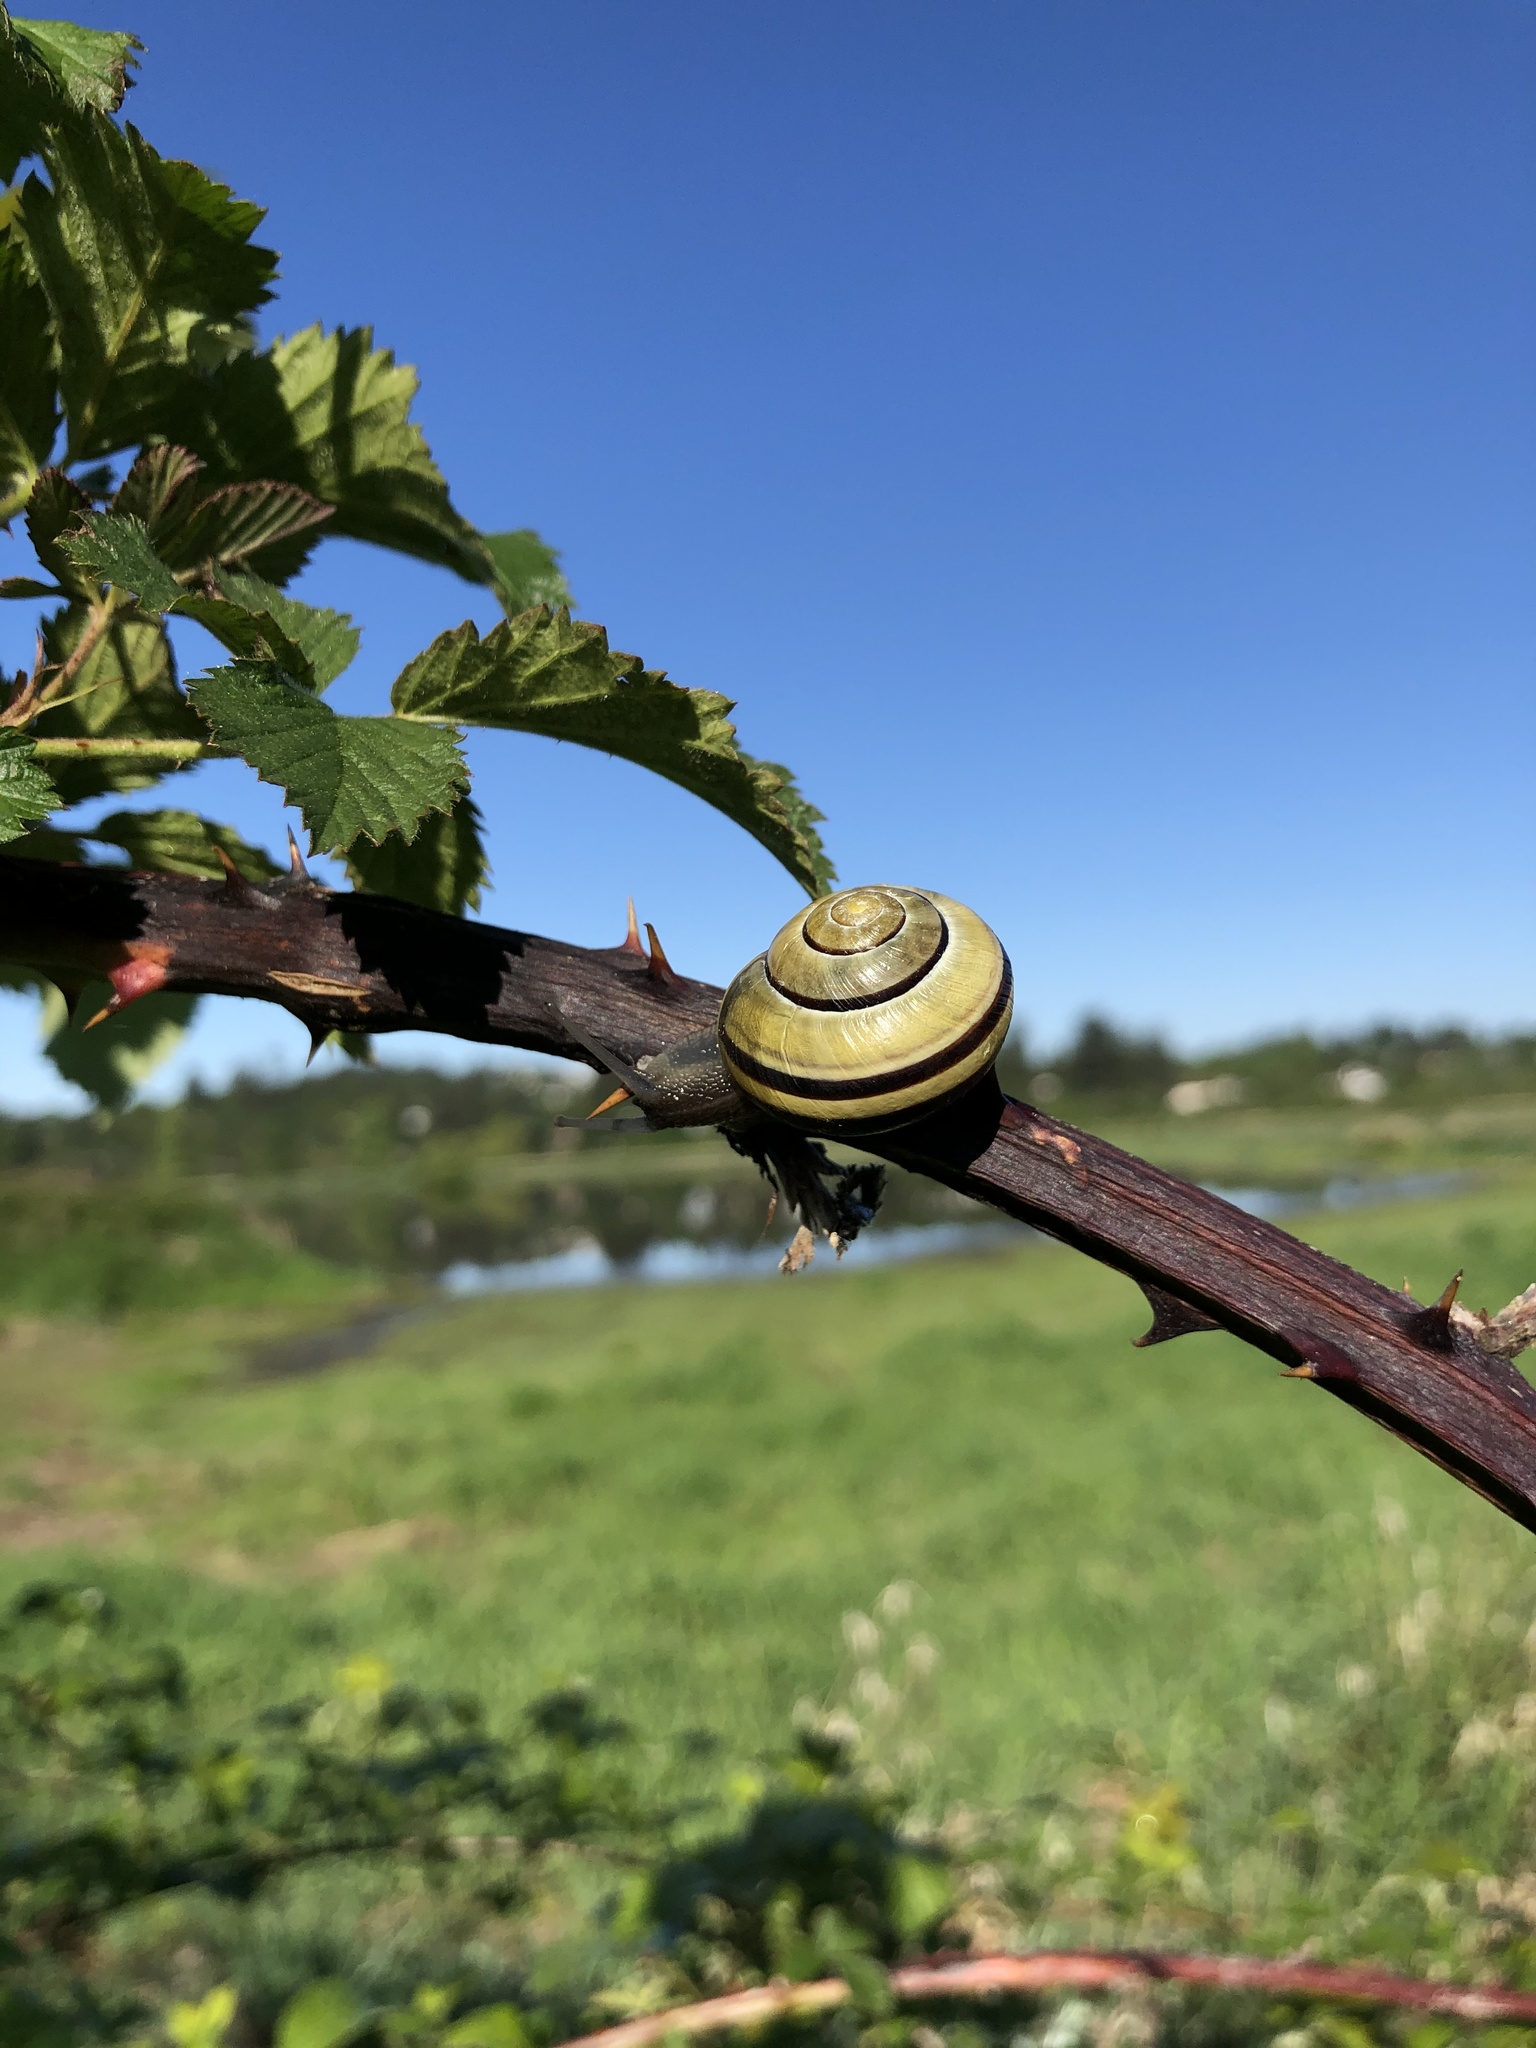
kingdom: Plantae
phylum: Tracheophyta
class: Magnoliopsida
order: Rosales
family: Rosaceae
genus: Rubus
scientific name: Rubus bifrons
